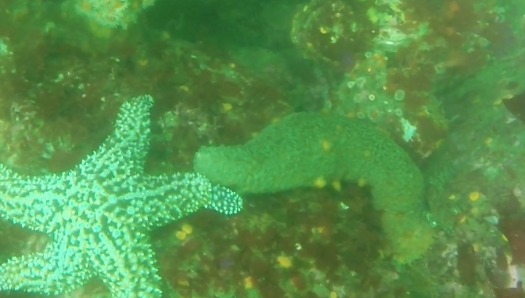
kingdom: Animalia
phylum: Echinodermata
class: Holothuroidea
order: Synallactida
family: Stichopodidae
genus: Apostichopus
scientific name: Apostichopus parvimensis
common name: Warty sea cucumber
